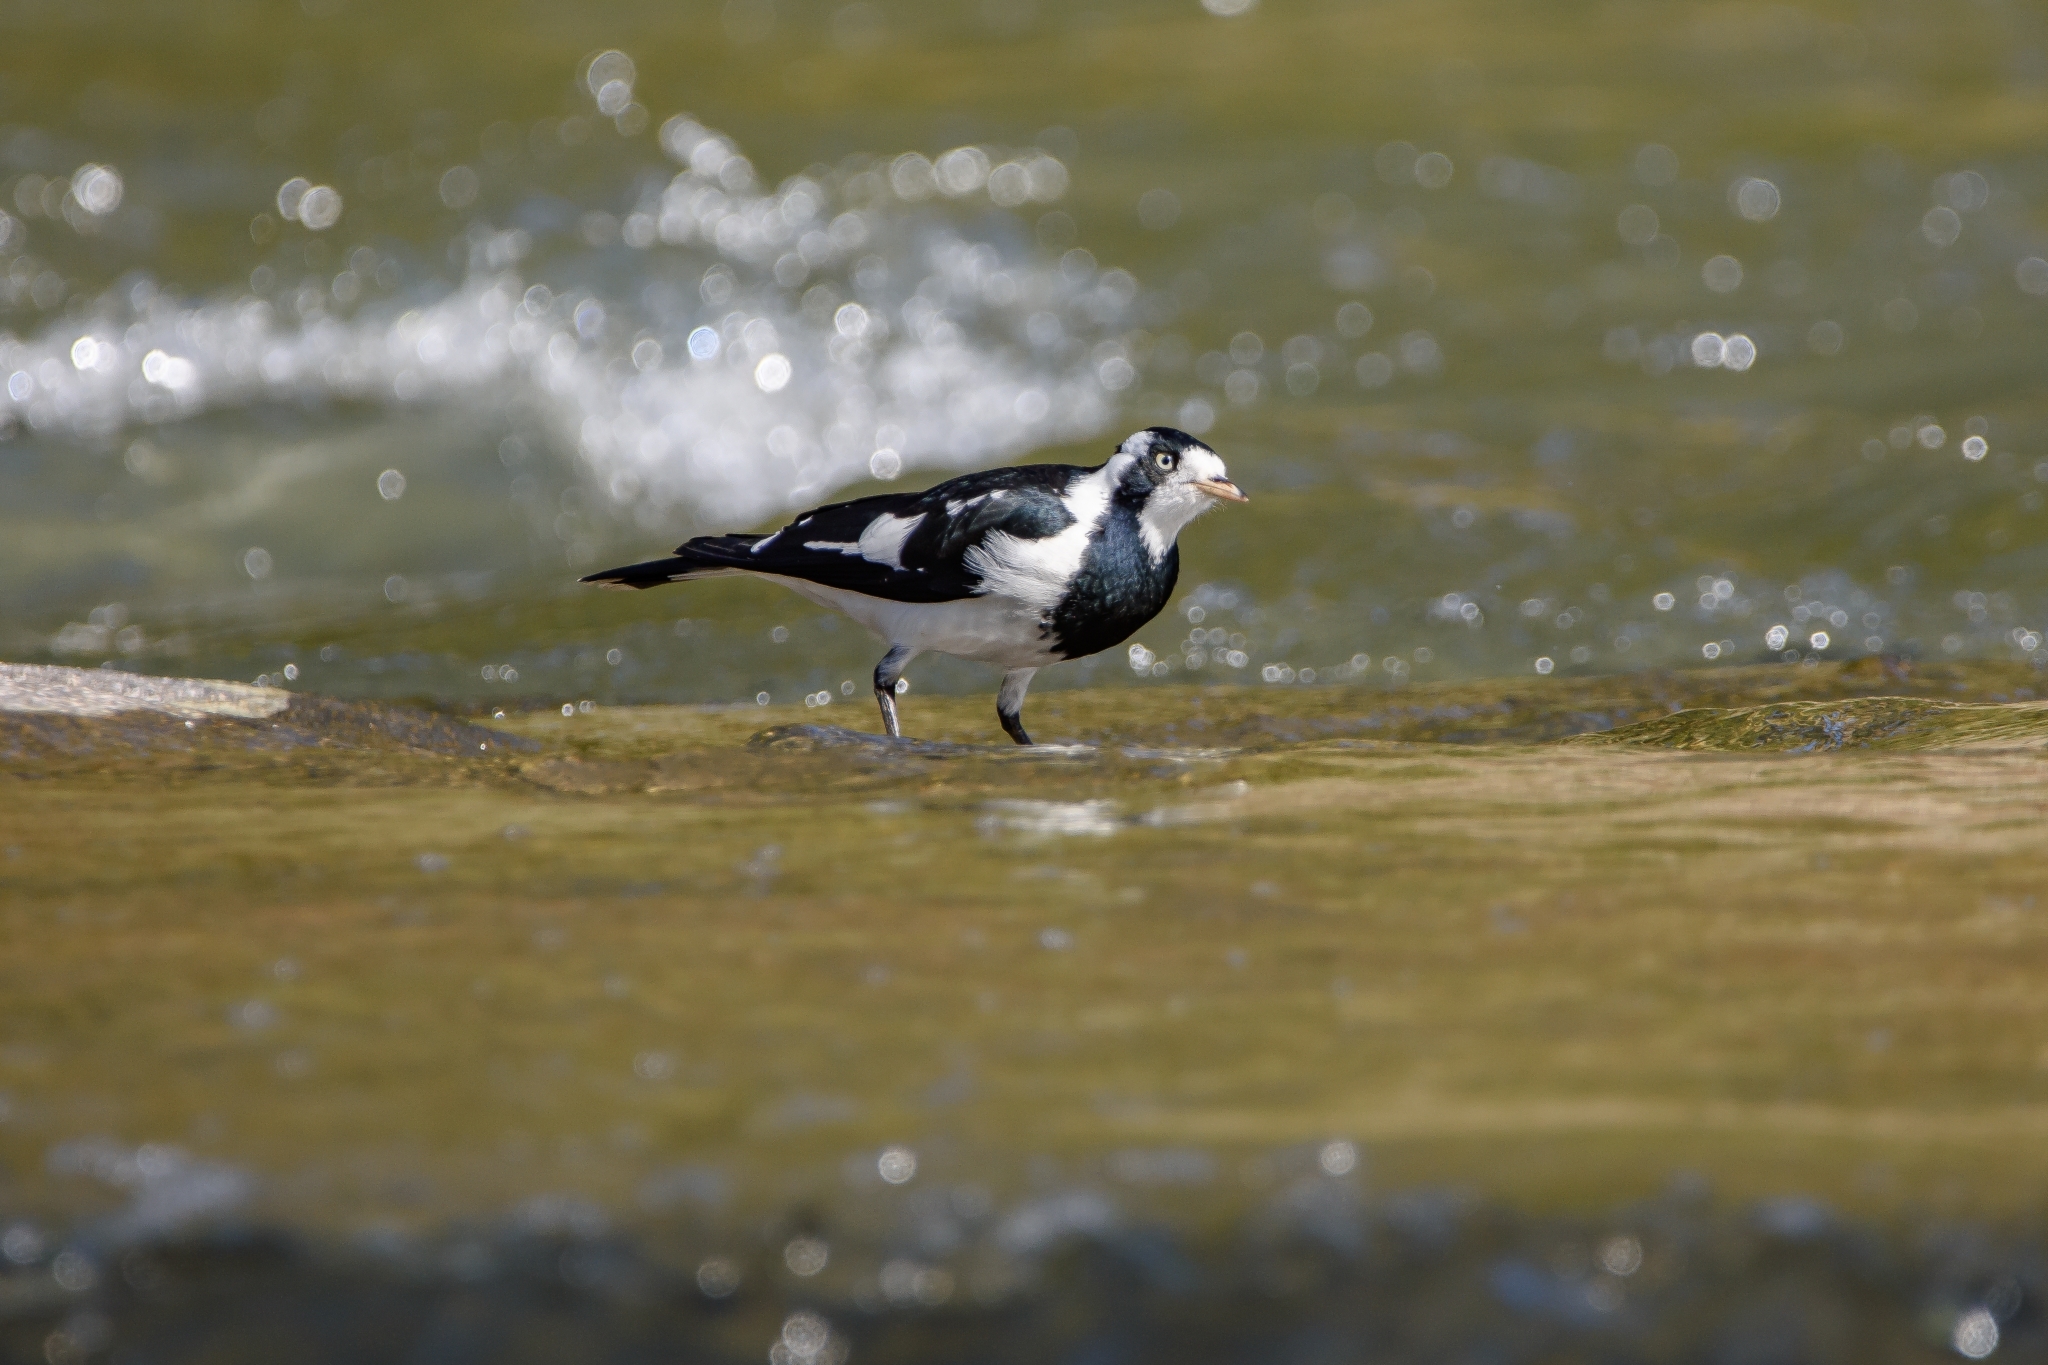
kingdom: Animalia
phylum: Chordata
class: Aves
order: Passeriformes
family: Monarchidae
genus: Grallina
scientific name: Grallina cyanoleuca
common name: Magpie-lark
